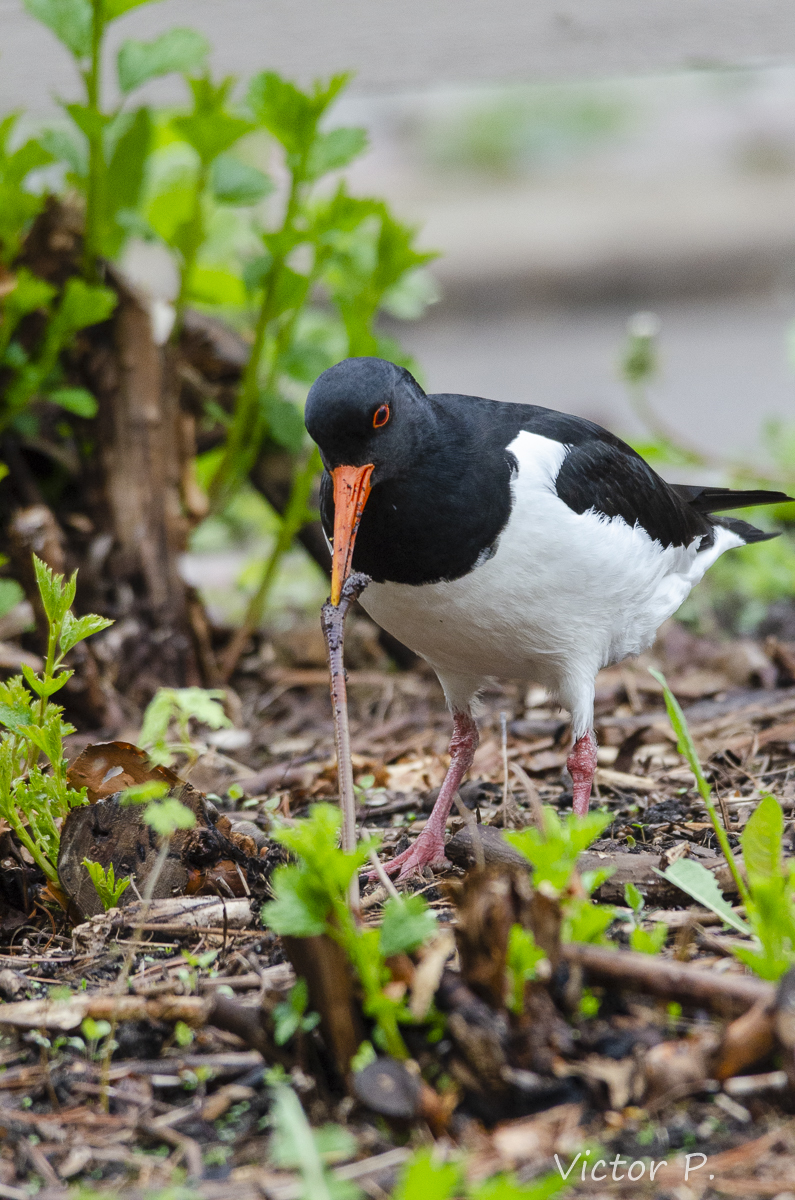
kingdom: Animalia
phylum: Chordata
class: Aves
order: Charadriiformes
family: Haematopodidae
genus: Haematopus
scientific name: Haematopus ostralegus
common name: Eurasian oystercatcher
